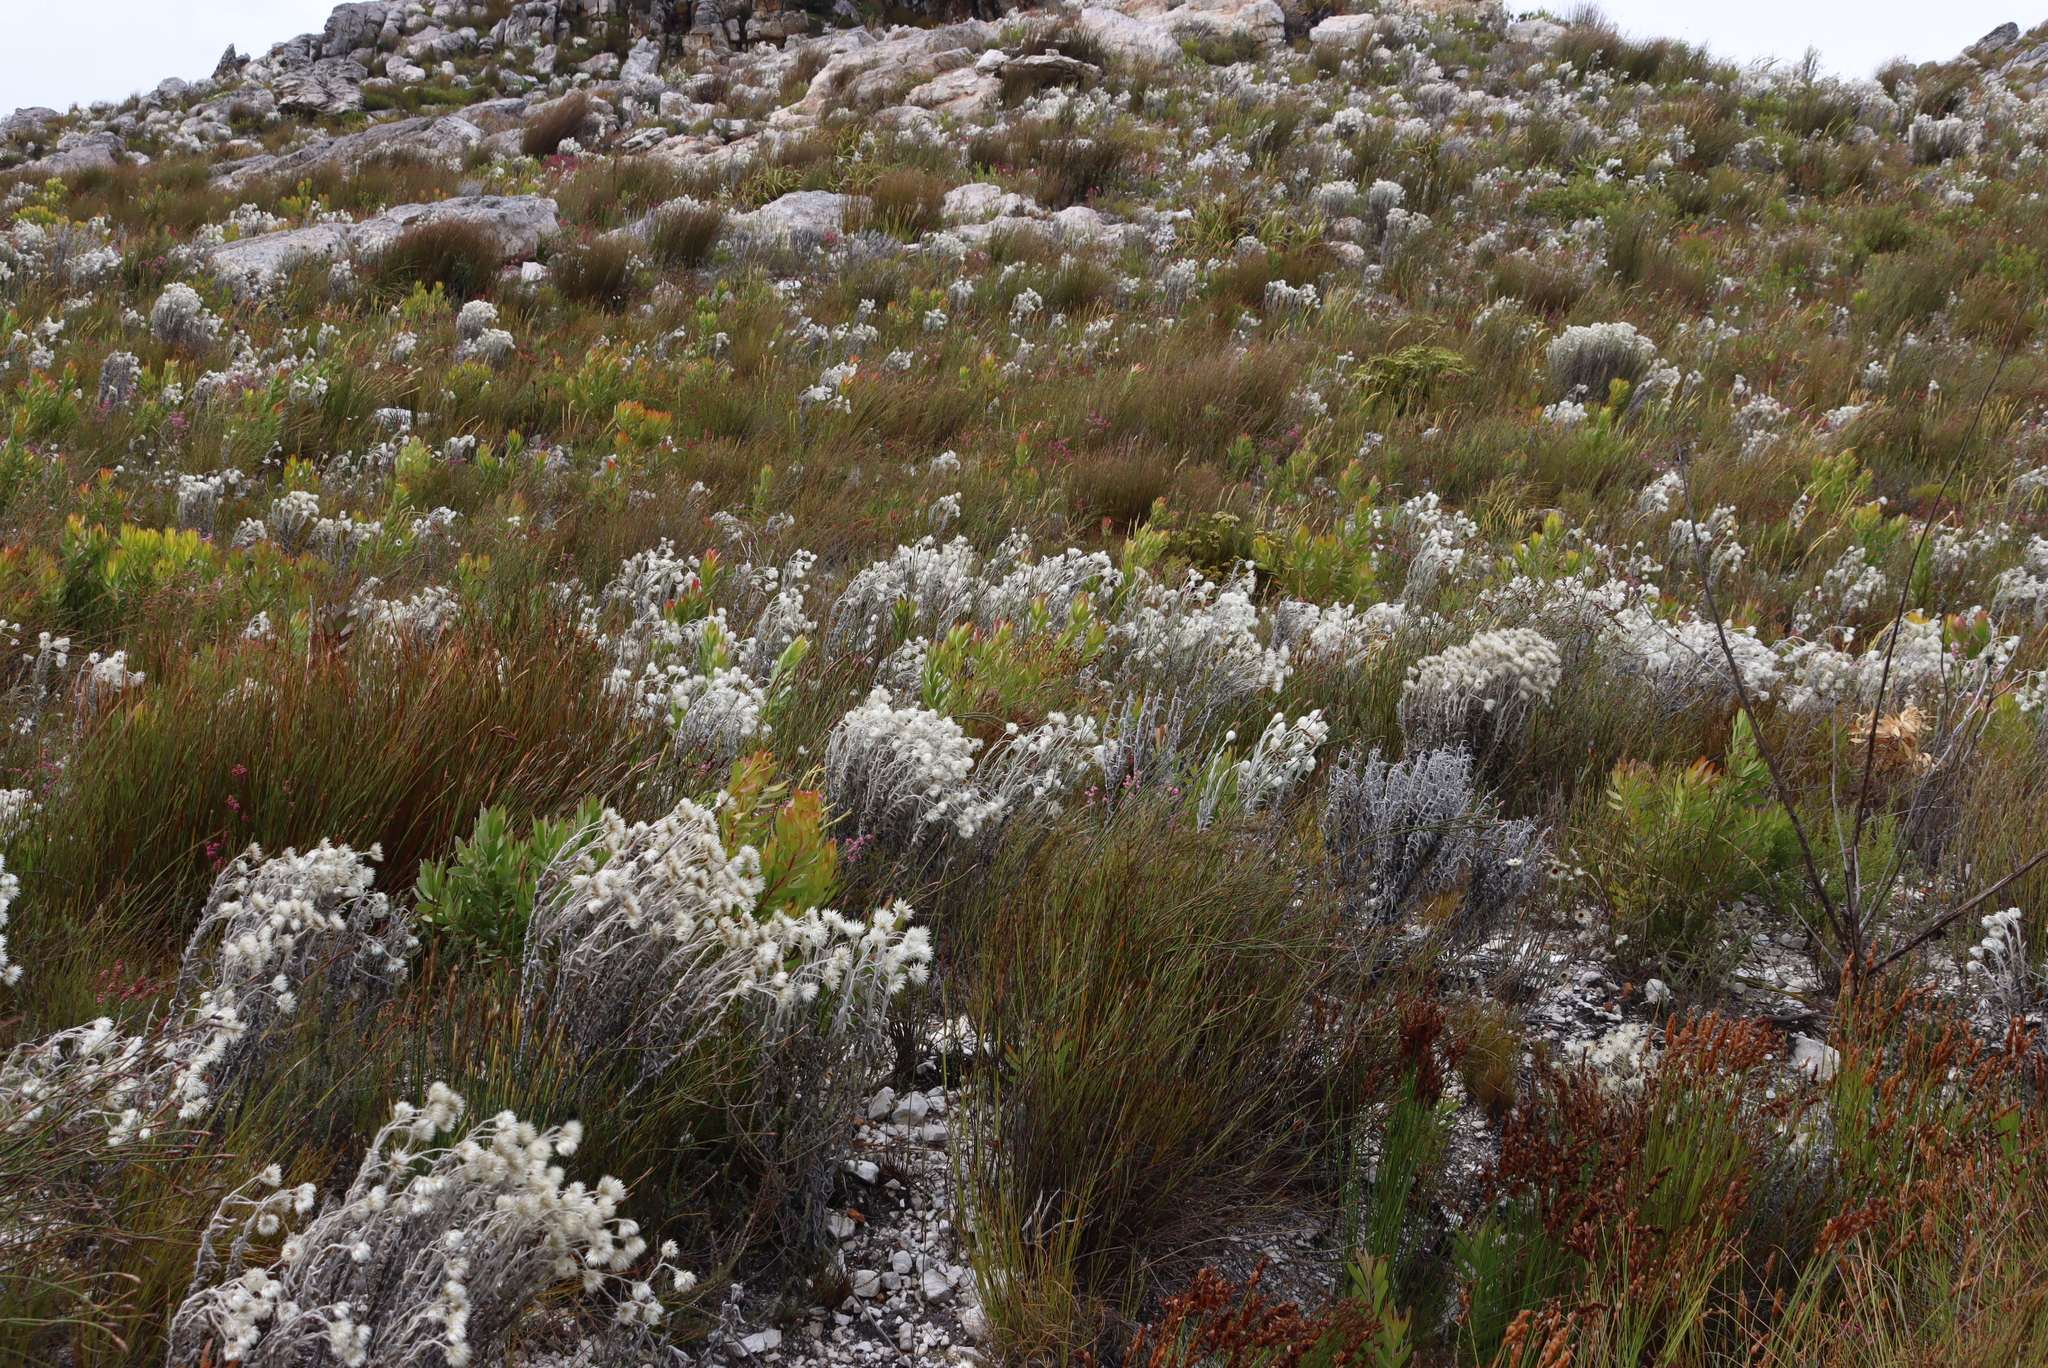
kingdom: Plantae
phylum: Tracheophyta
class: Magnoliopsida
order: Asterales
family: Asteraceae
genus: Syncarpha
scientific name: Syncarpha vestita
